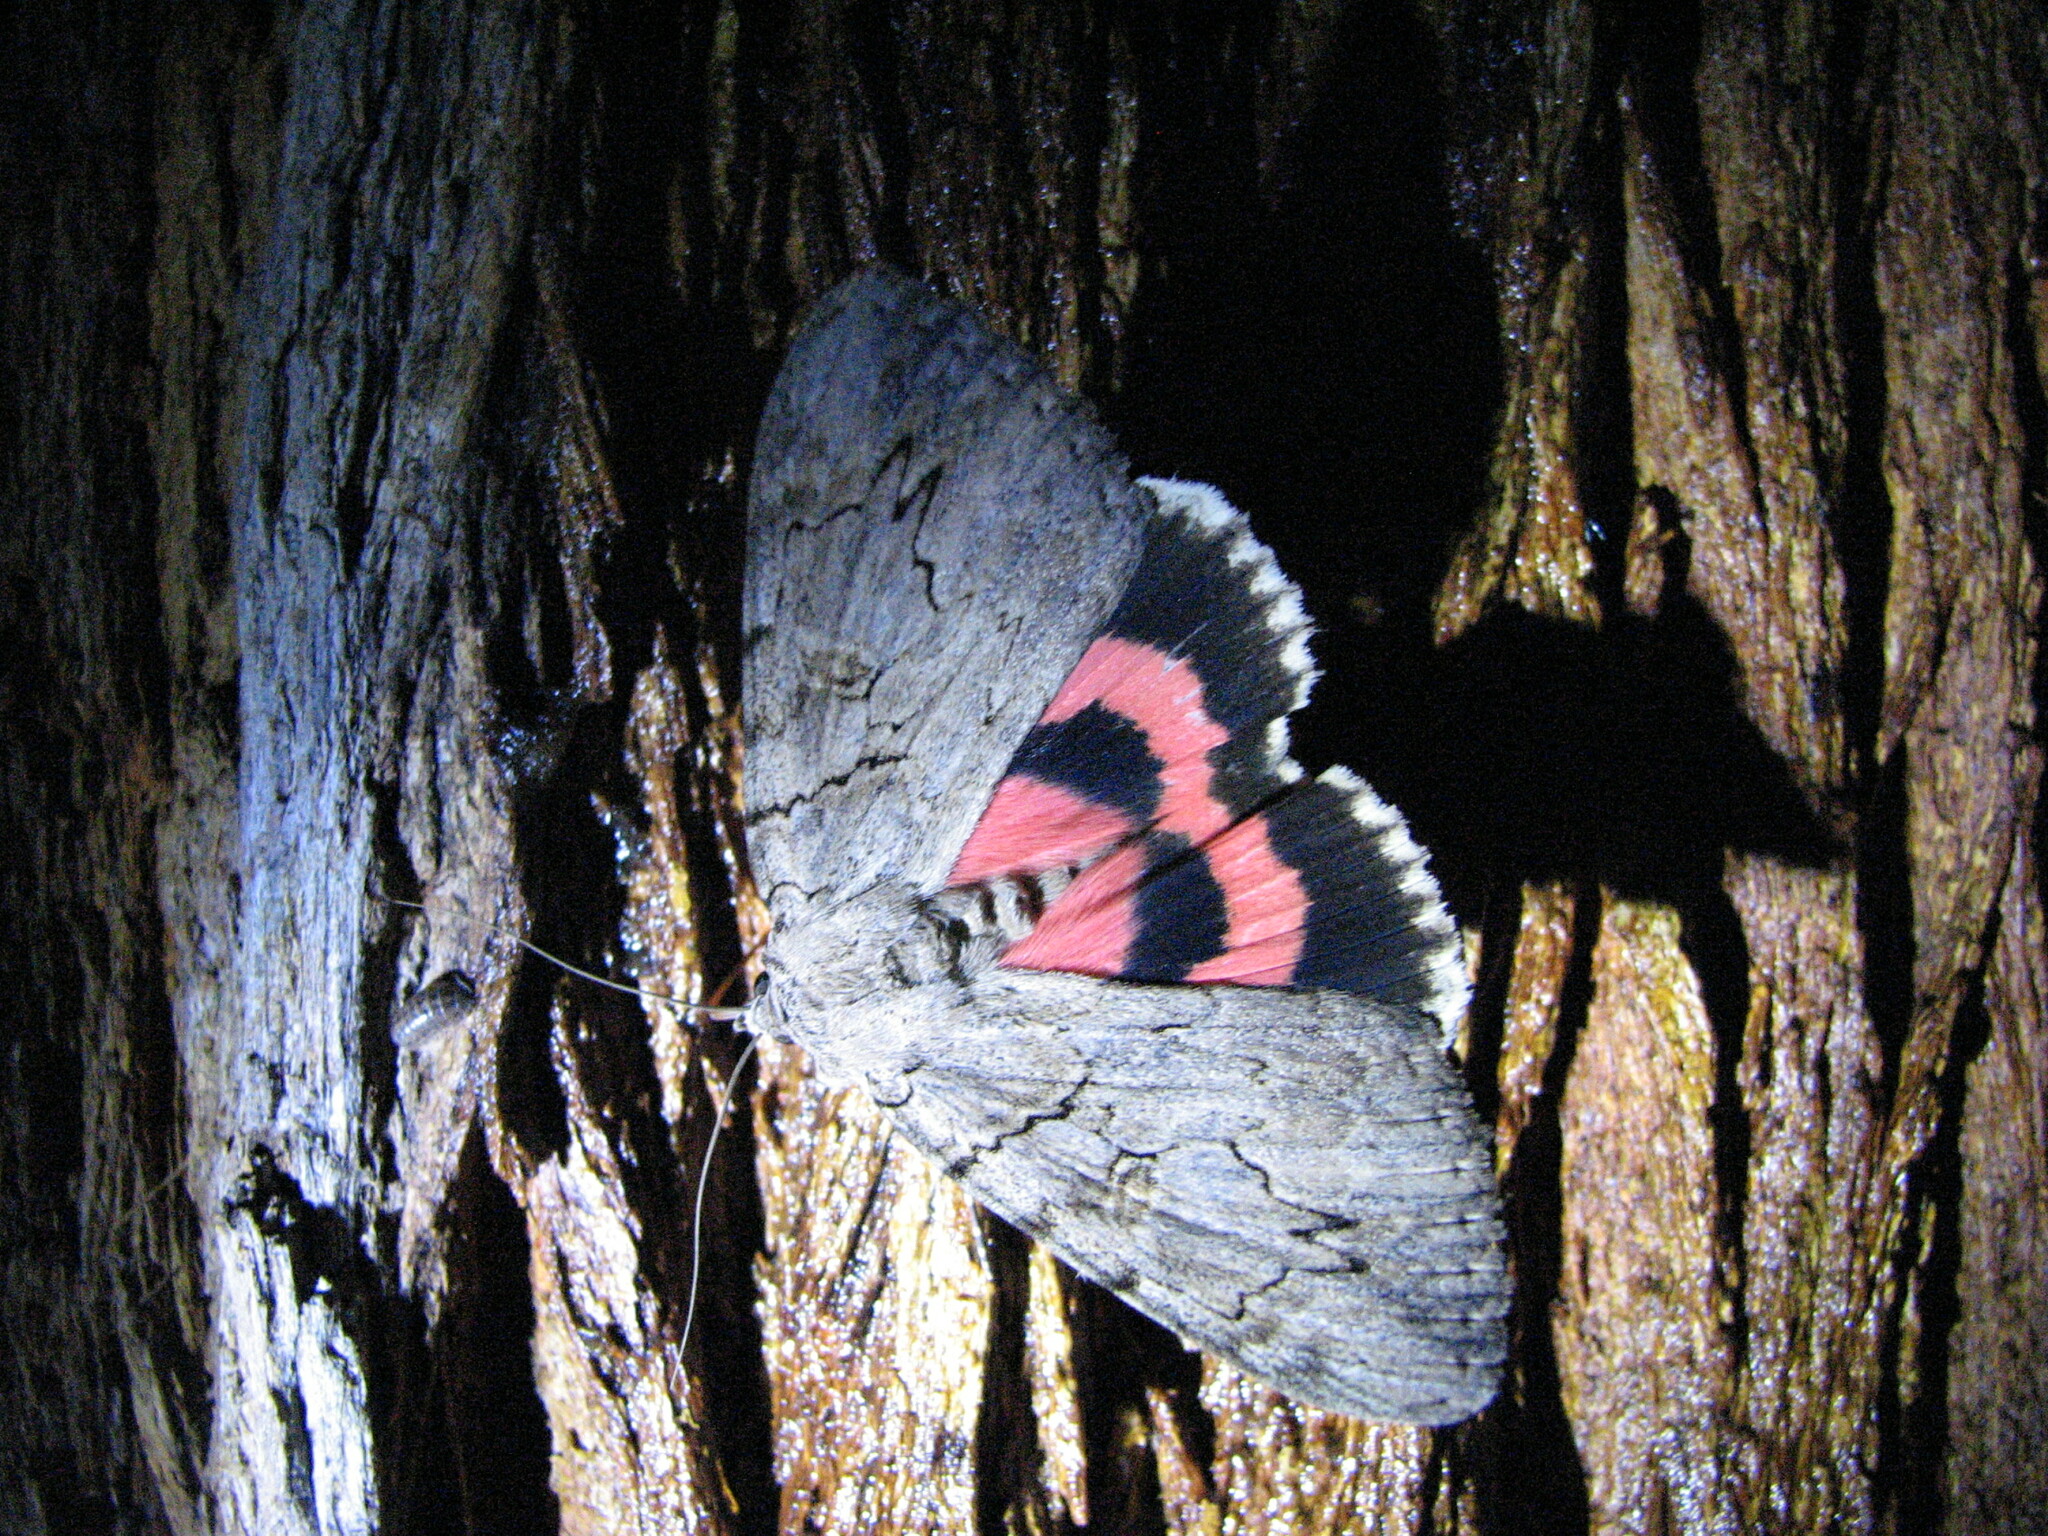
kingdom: Animalia
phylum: Arthropoda
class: Insecta
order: Lepidoptera
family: Erebidae
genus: Catocala
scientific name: Catocala amatrix
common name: Sweetheart underwing
